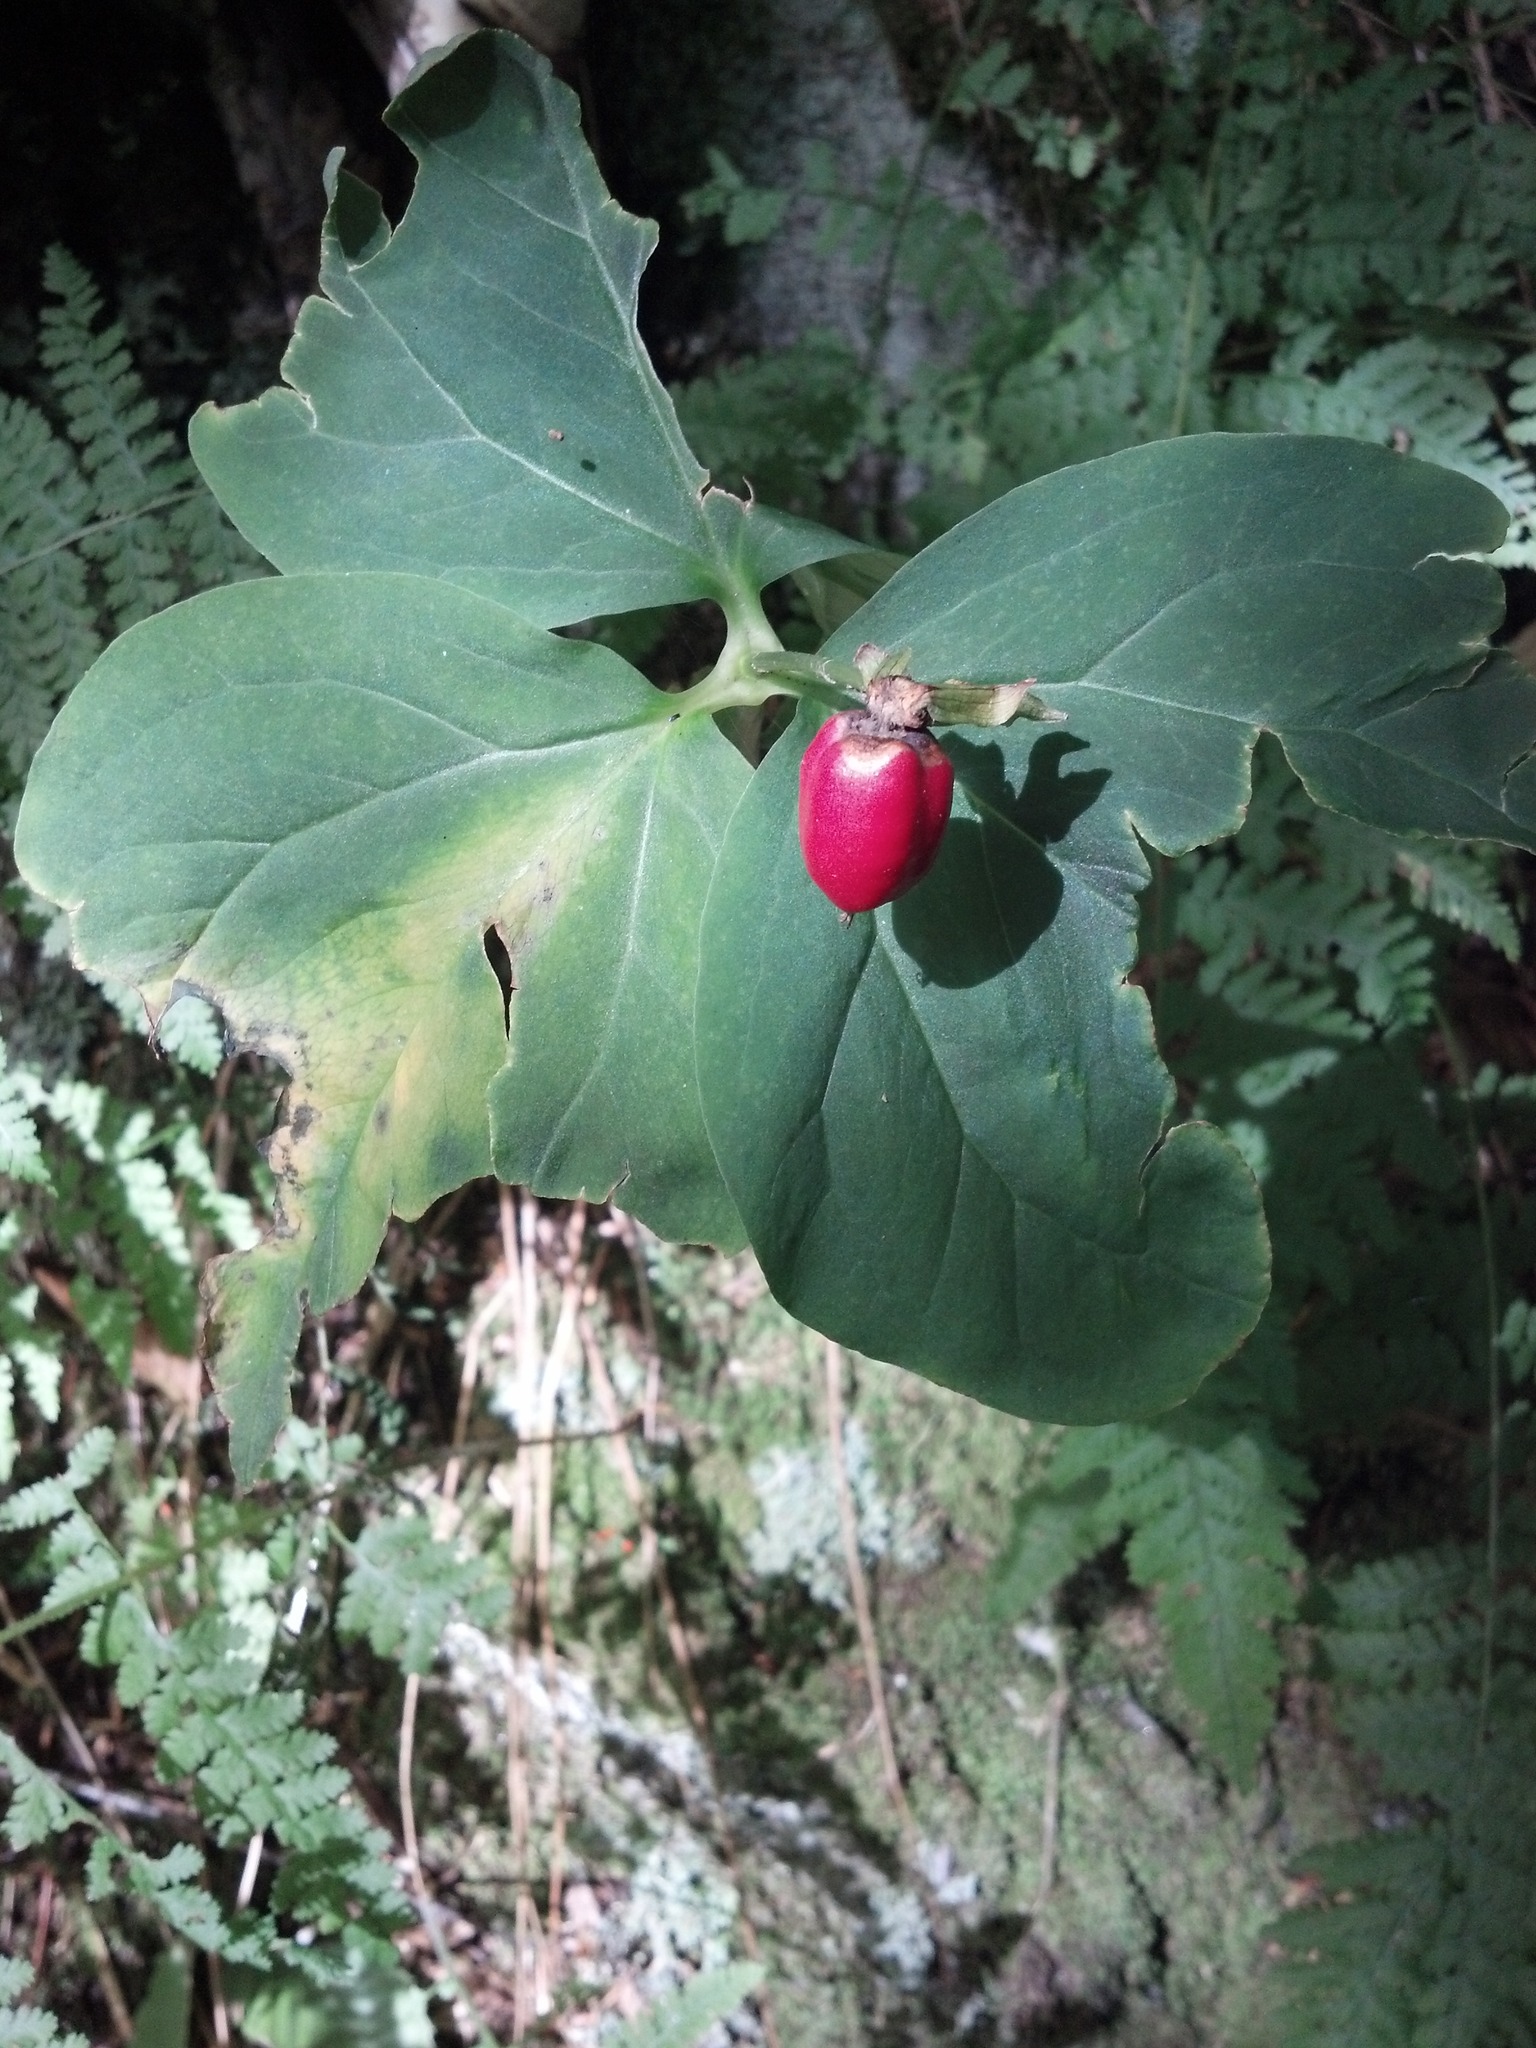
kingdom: Plantae
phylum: Tracheophyta
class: Liliopsida
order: Liliales
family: Melanthiaceae
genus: Trillium
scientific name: Trillium undulatum
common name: Paint trillium
